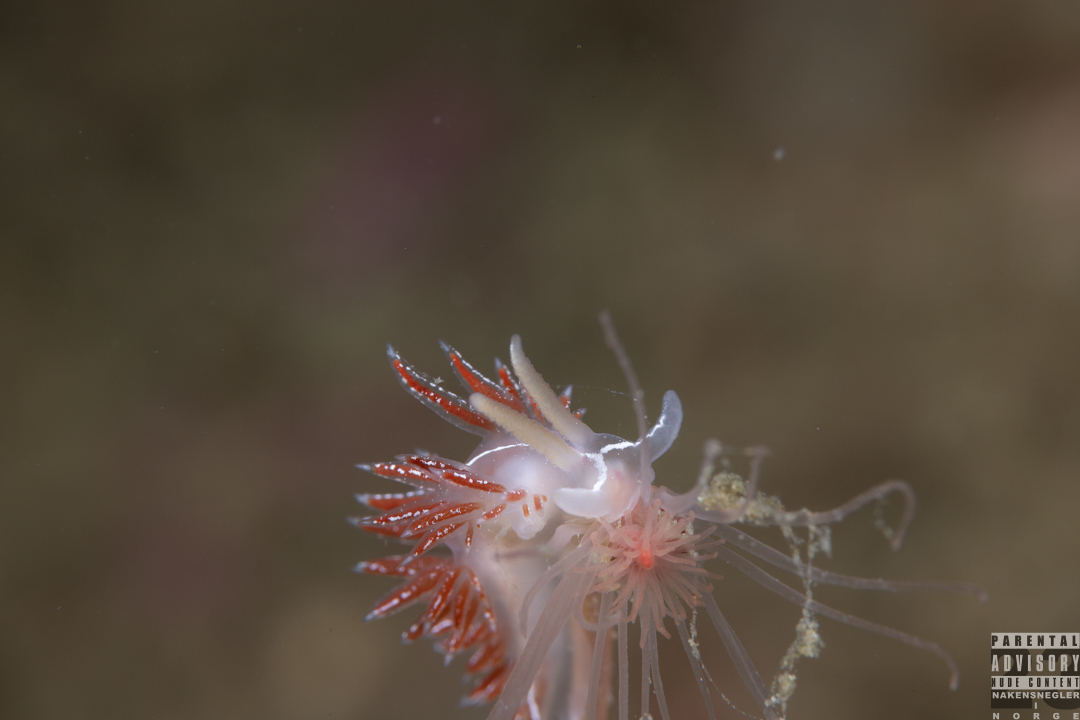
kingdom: Animalia
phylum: Mollusca
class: Gastropoda
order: Nudibranchia
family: Coryphellidae
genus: Coryphella
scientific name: Coryphella chriskaugei
